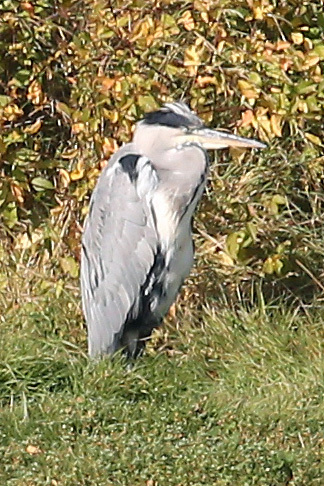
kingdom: Animalia
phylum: Chordata
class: Aves
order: Pelecaniformes
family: Ardeidae
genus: Ardea
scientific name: Ardea cinerea
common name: Grey heron
